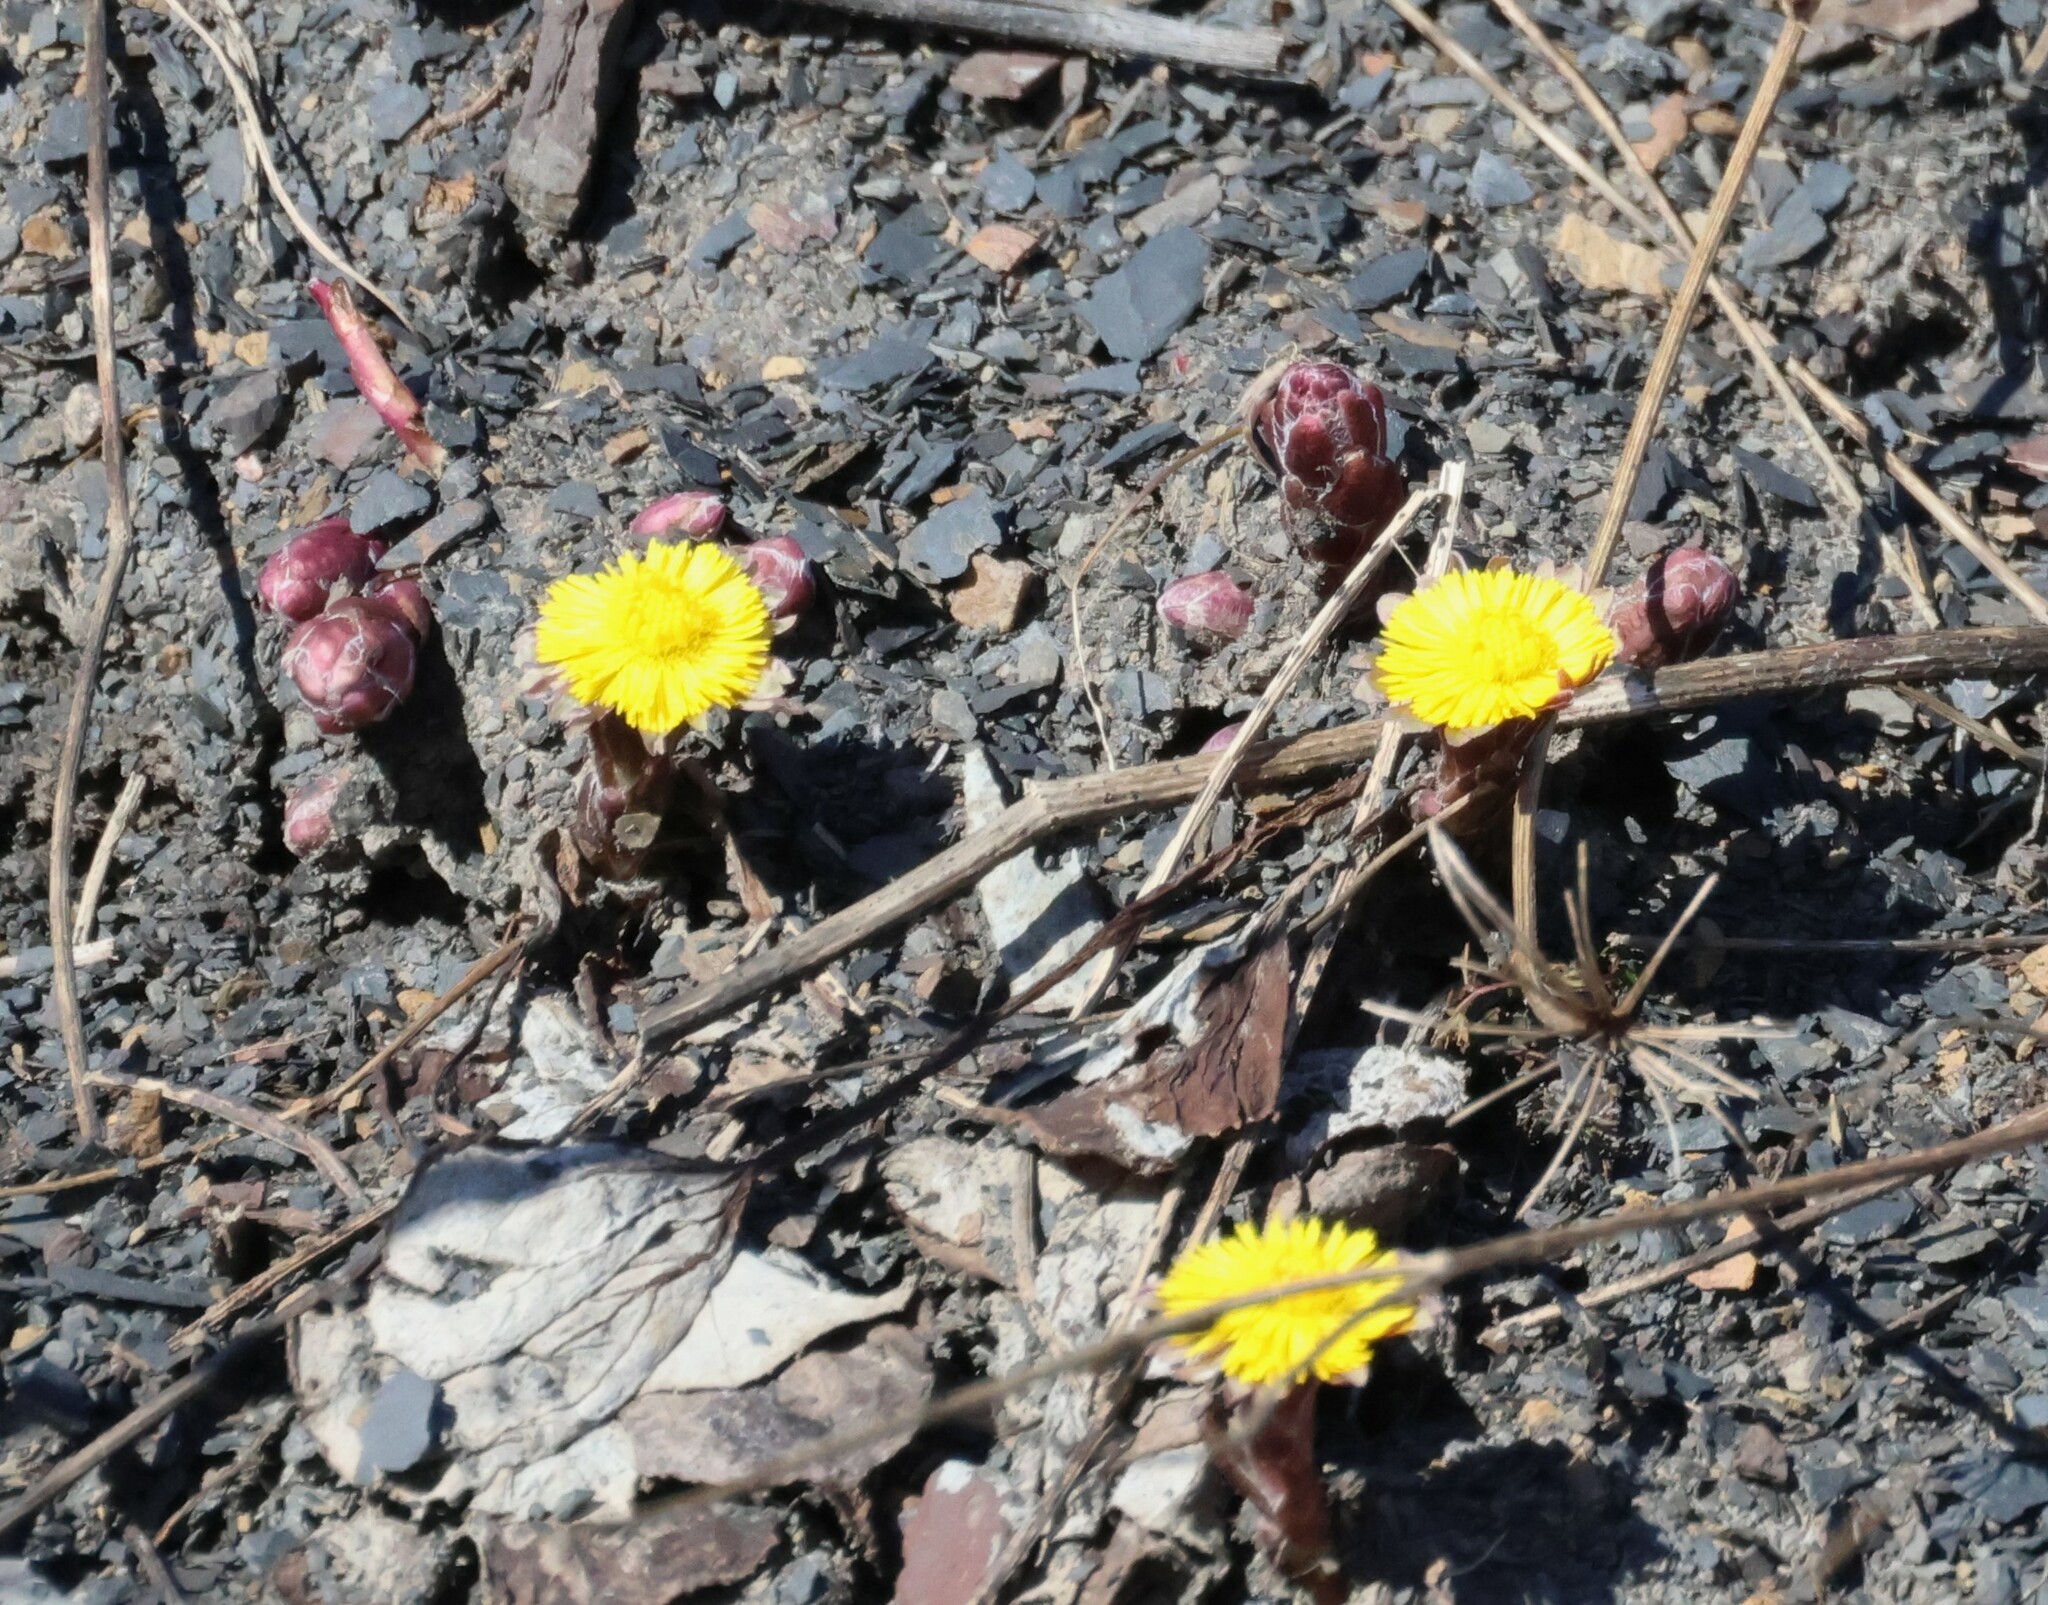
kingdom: Plantae
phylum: Tracheophyta
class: Magnoliopsida
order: Asterales
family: Asteraceae
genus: Tussilago
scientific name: Tussilago farfara
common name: Coltsfoot
